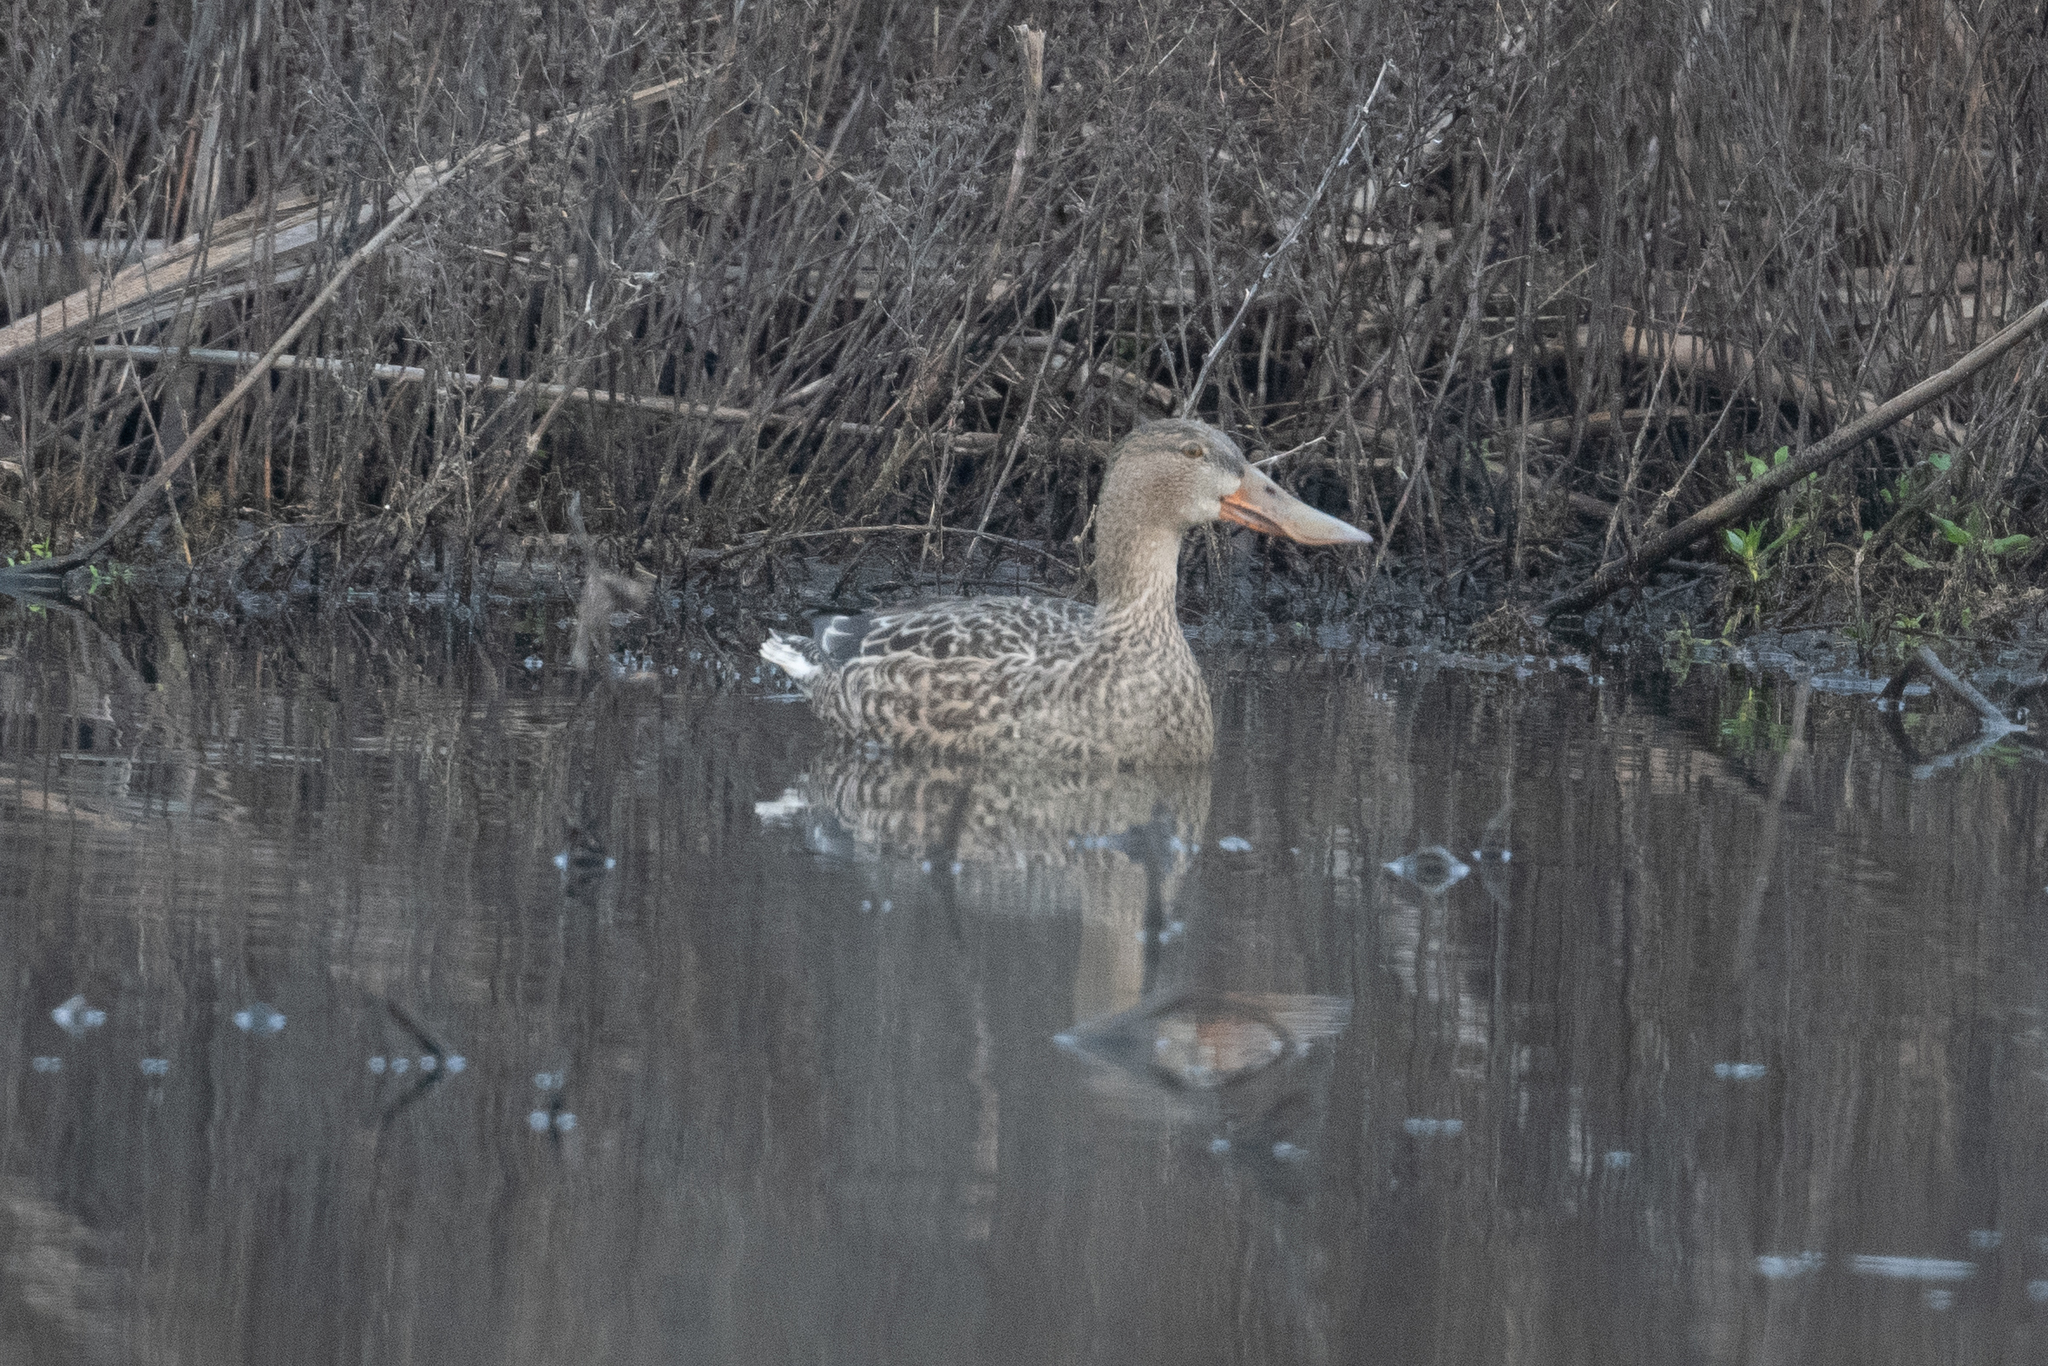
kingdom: Animalia
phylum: Chordata
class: Aves
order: Anseriformes
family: Anatidae
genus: Spatula
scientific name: Spatula clypeata
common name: Northern shoveler
